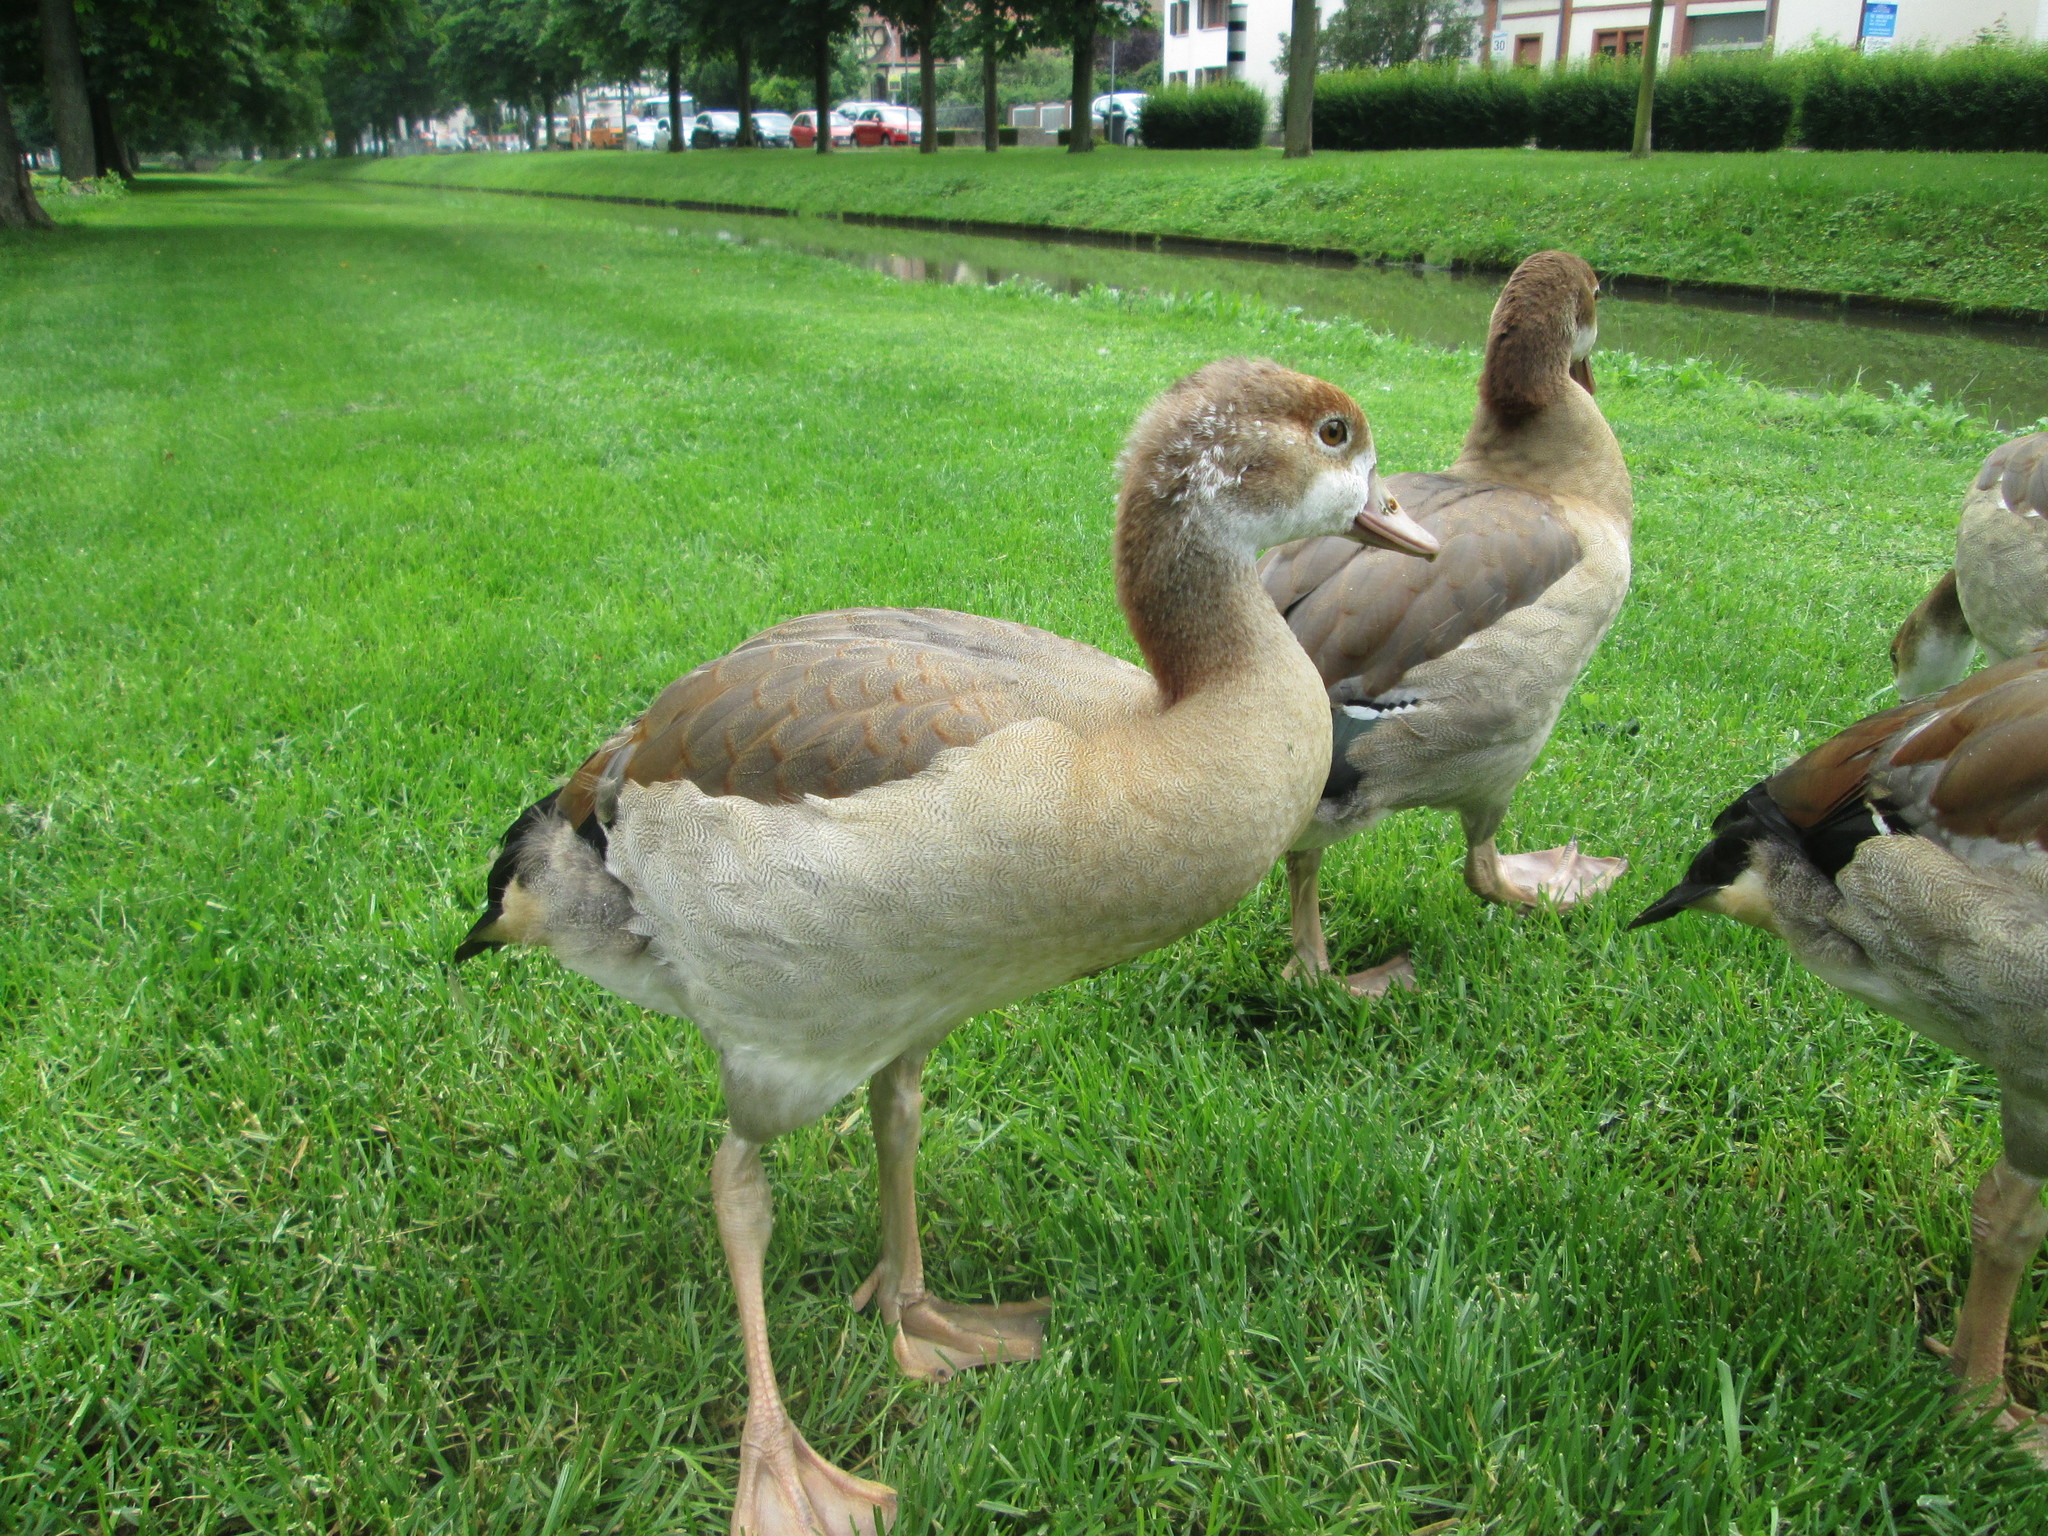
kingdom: Animalia
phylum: Chordata
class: Aves
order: Anseriformes
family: Anatidae
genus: Alopochen
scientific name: Alopochen aegyptiaca
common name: Egyptian goose
